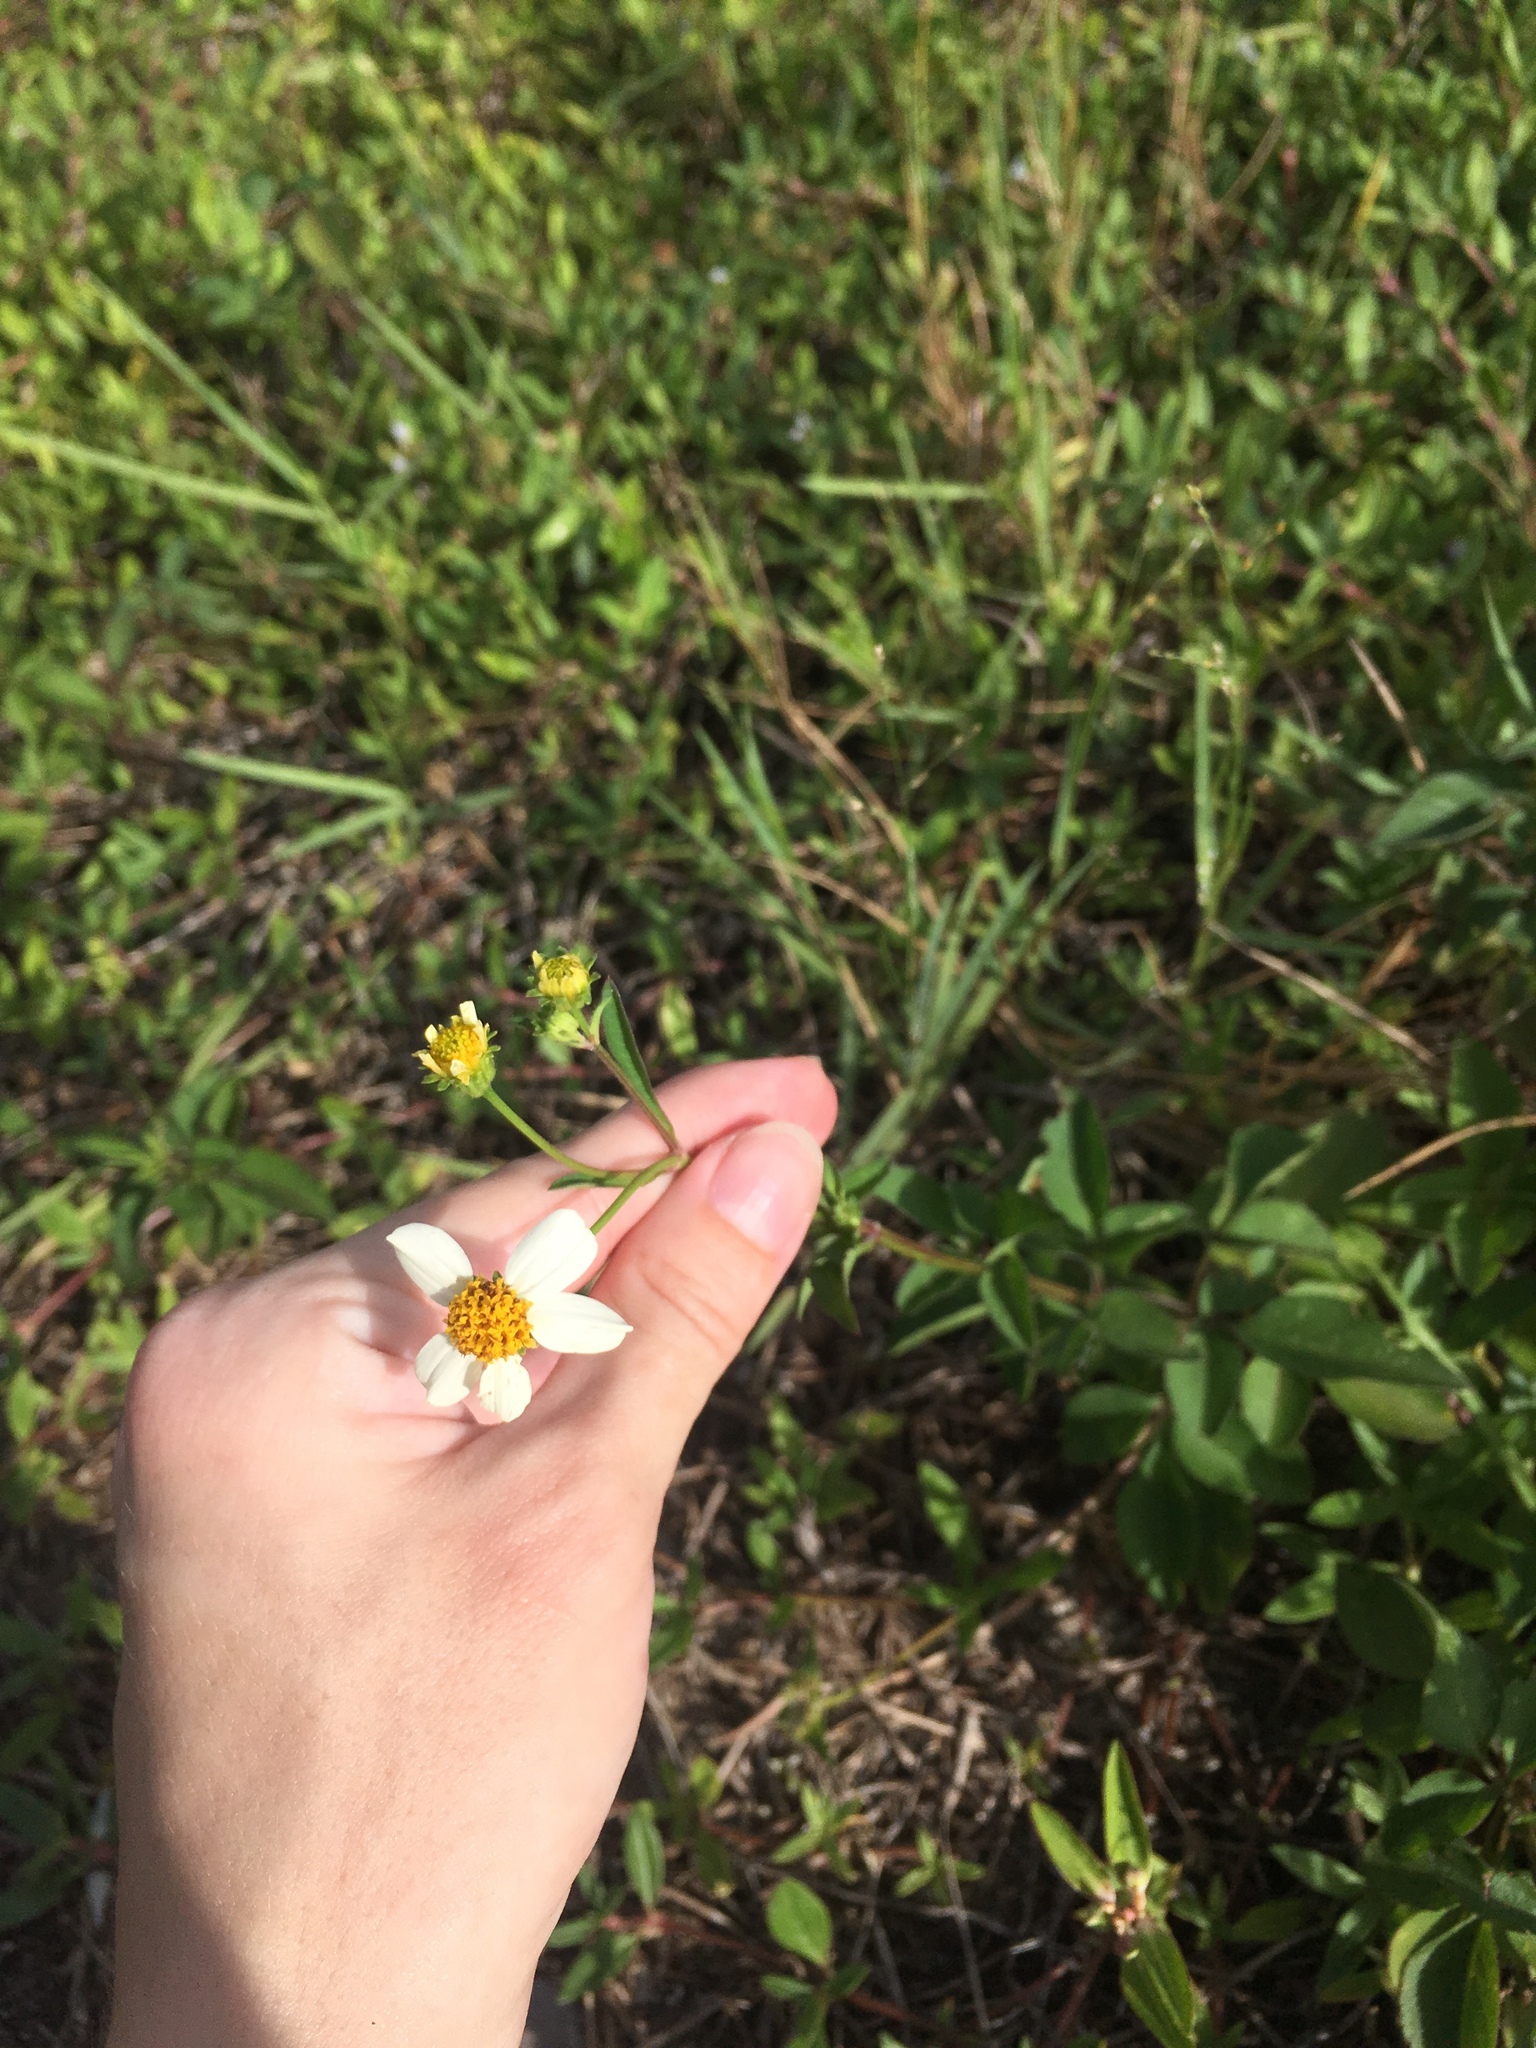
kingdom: Plantae
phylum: Tracheophyta
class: Magnoliopsida
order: Asterales
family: Asteraceae
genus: Bidens
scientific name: Bidens alba
